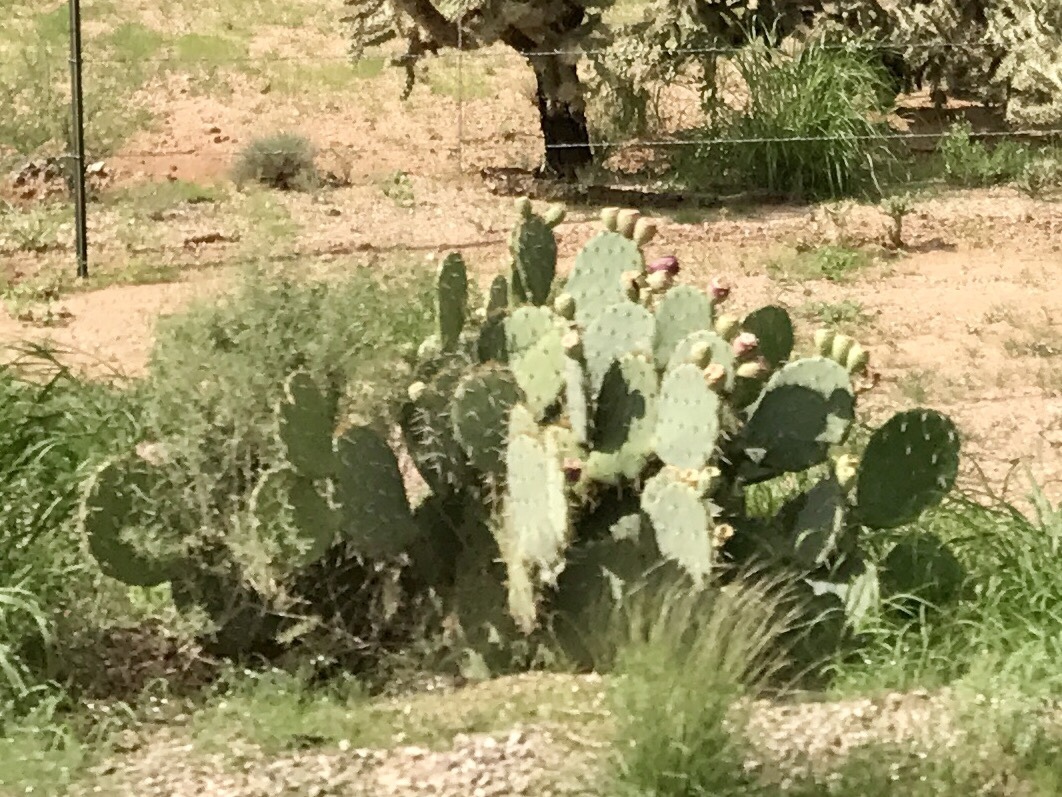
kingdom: Plantae
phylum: Tracheophyta
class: Magnoliopsida
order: Caryophyllales
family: Cactaceae
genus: Opuntia
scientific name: Opuntia engelmannii
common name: Cactus-apple
